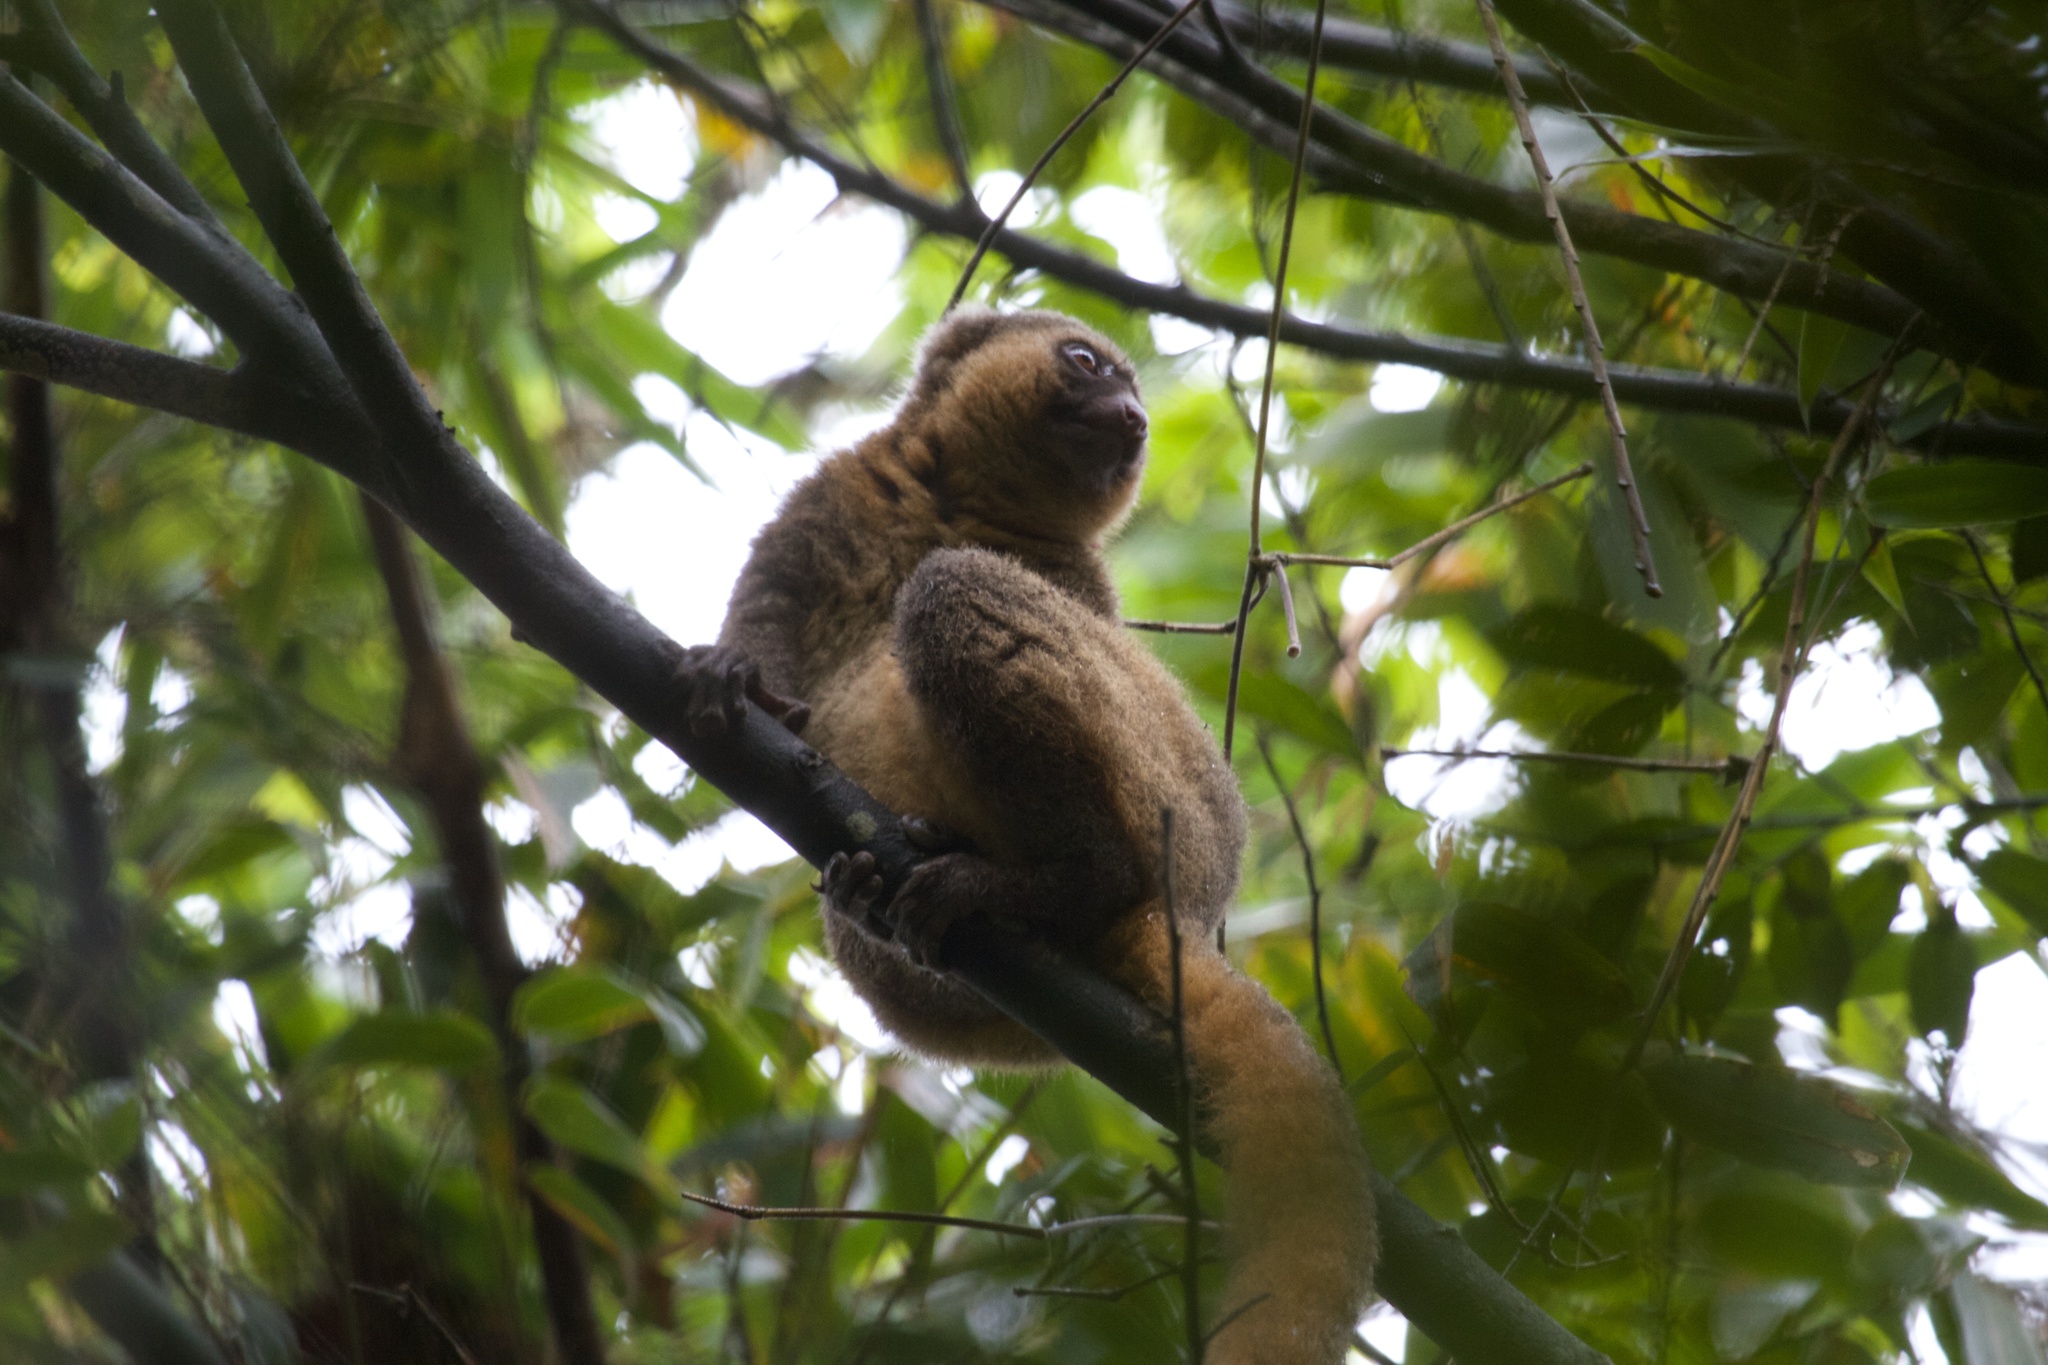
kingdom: Animalia
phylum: Chordata
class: Mammalia
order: Primates
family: Lemuridae
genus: Hapalemur
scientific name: Hapalemur aureus
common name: Golden bamboo lemur
